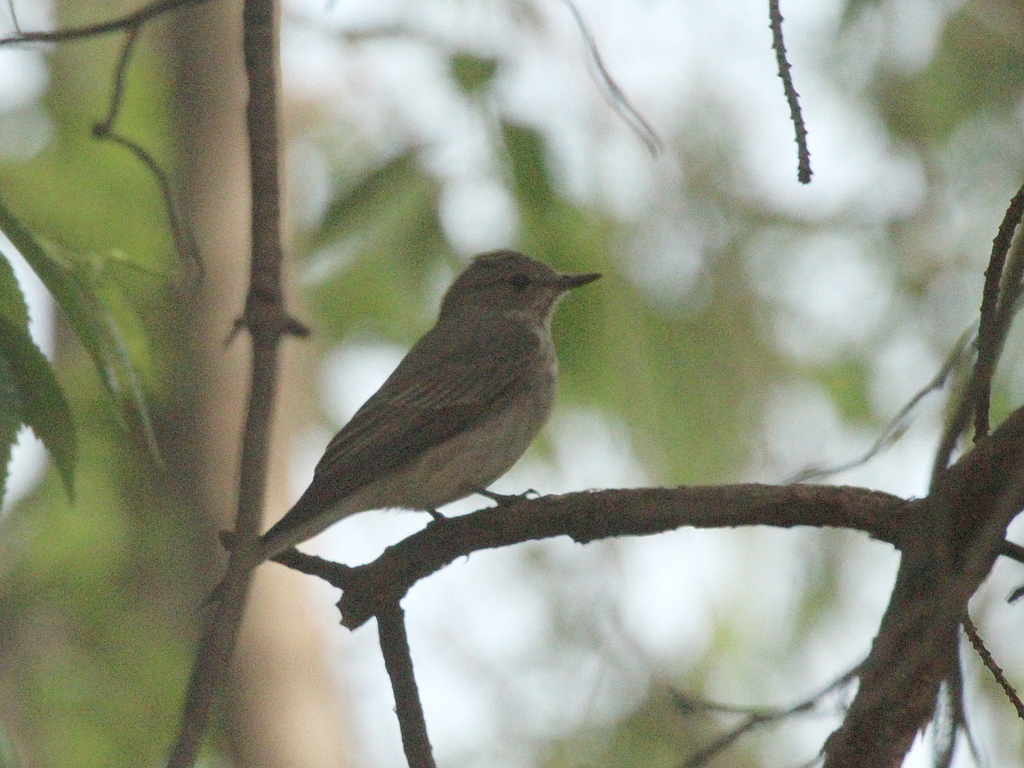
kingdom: Animalia
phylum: Chordata
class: Aves
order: Passeriformes
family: Muscicapidae
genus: Muscicapa
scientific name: Muscicapa striata
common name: Spotted flycatcher
